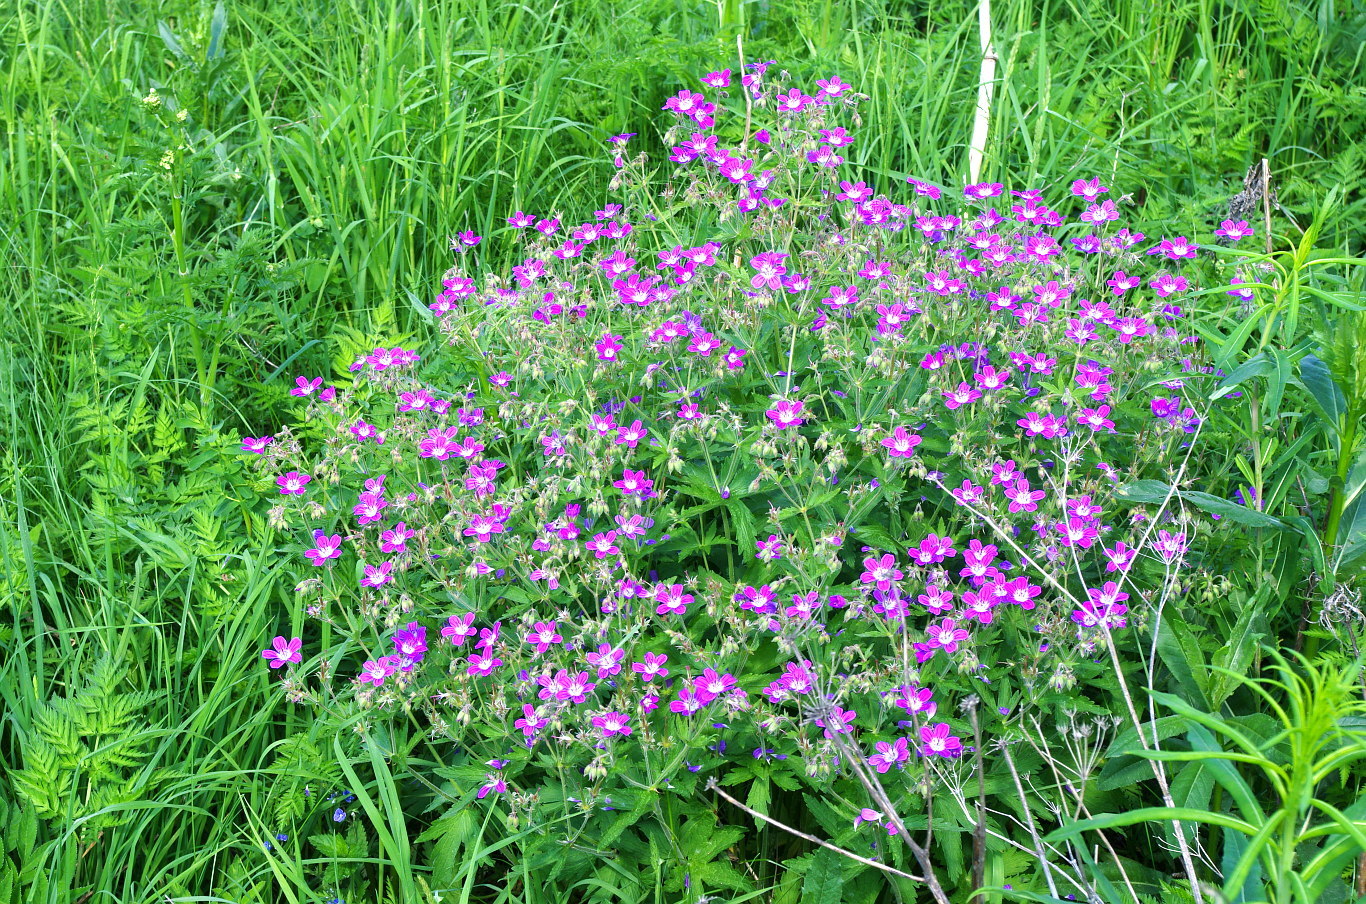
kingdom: Plantae
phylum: Tracheophyta
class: Magnoliopsida
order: Geraniales
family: Geraniaceae
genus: Geranium
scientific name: Geranium sylvaticum
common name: Wood crane's-bill
